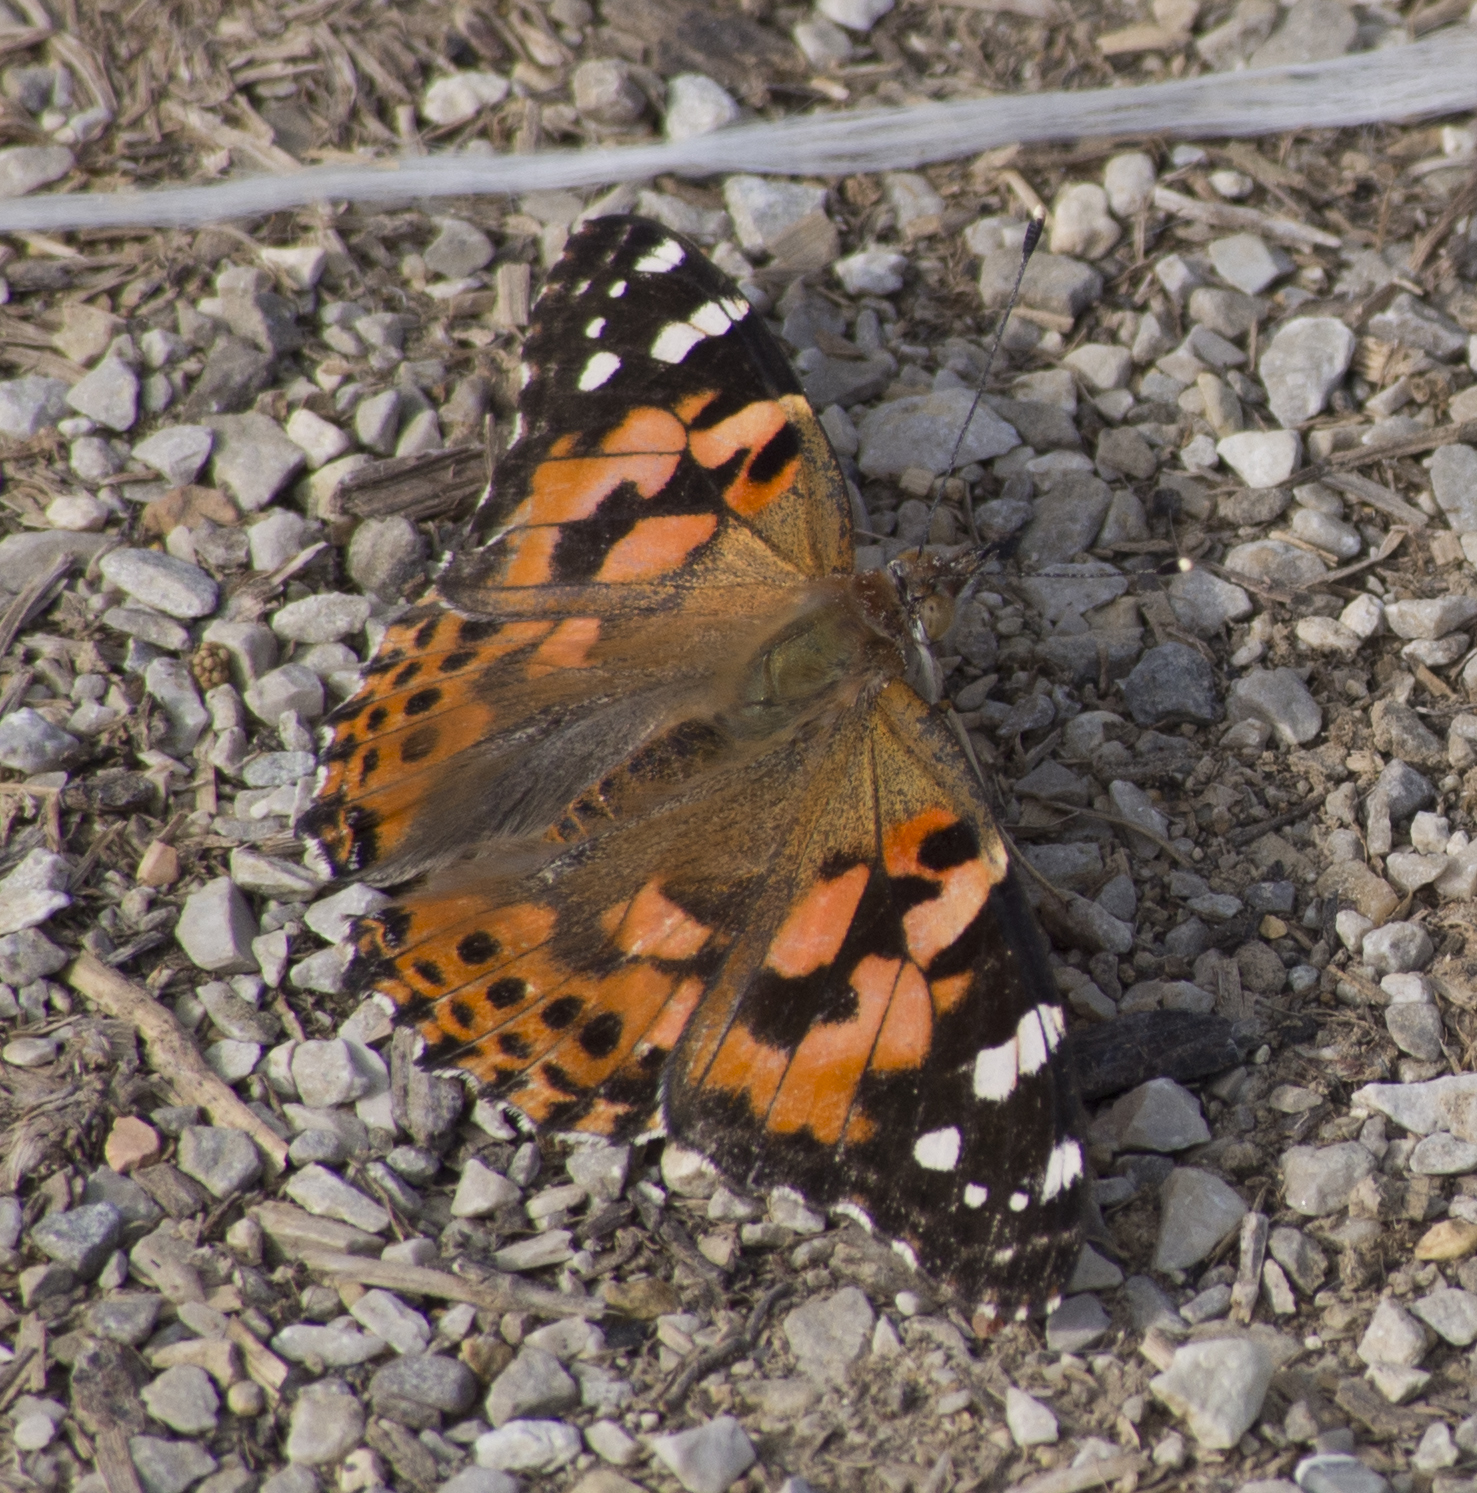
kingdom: Animalia
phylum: Arthropoda
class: Insecta
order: Lepidoptera
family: Nymphalidae
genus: Vanessa
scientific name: Vanessa cardui
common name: Painted lady
